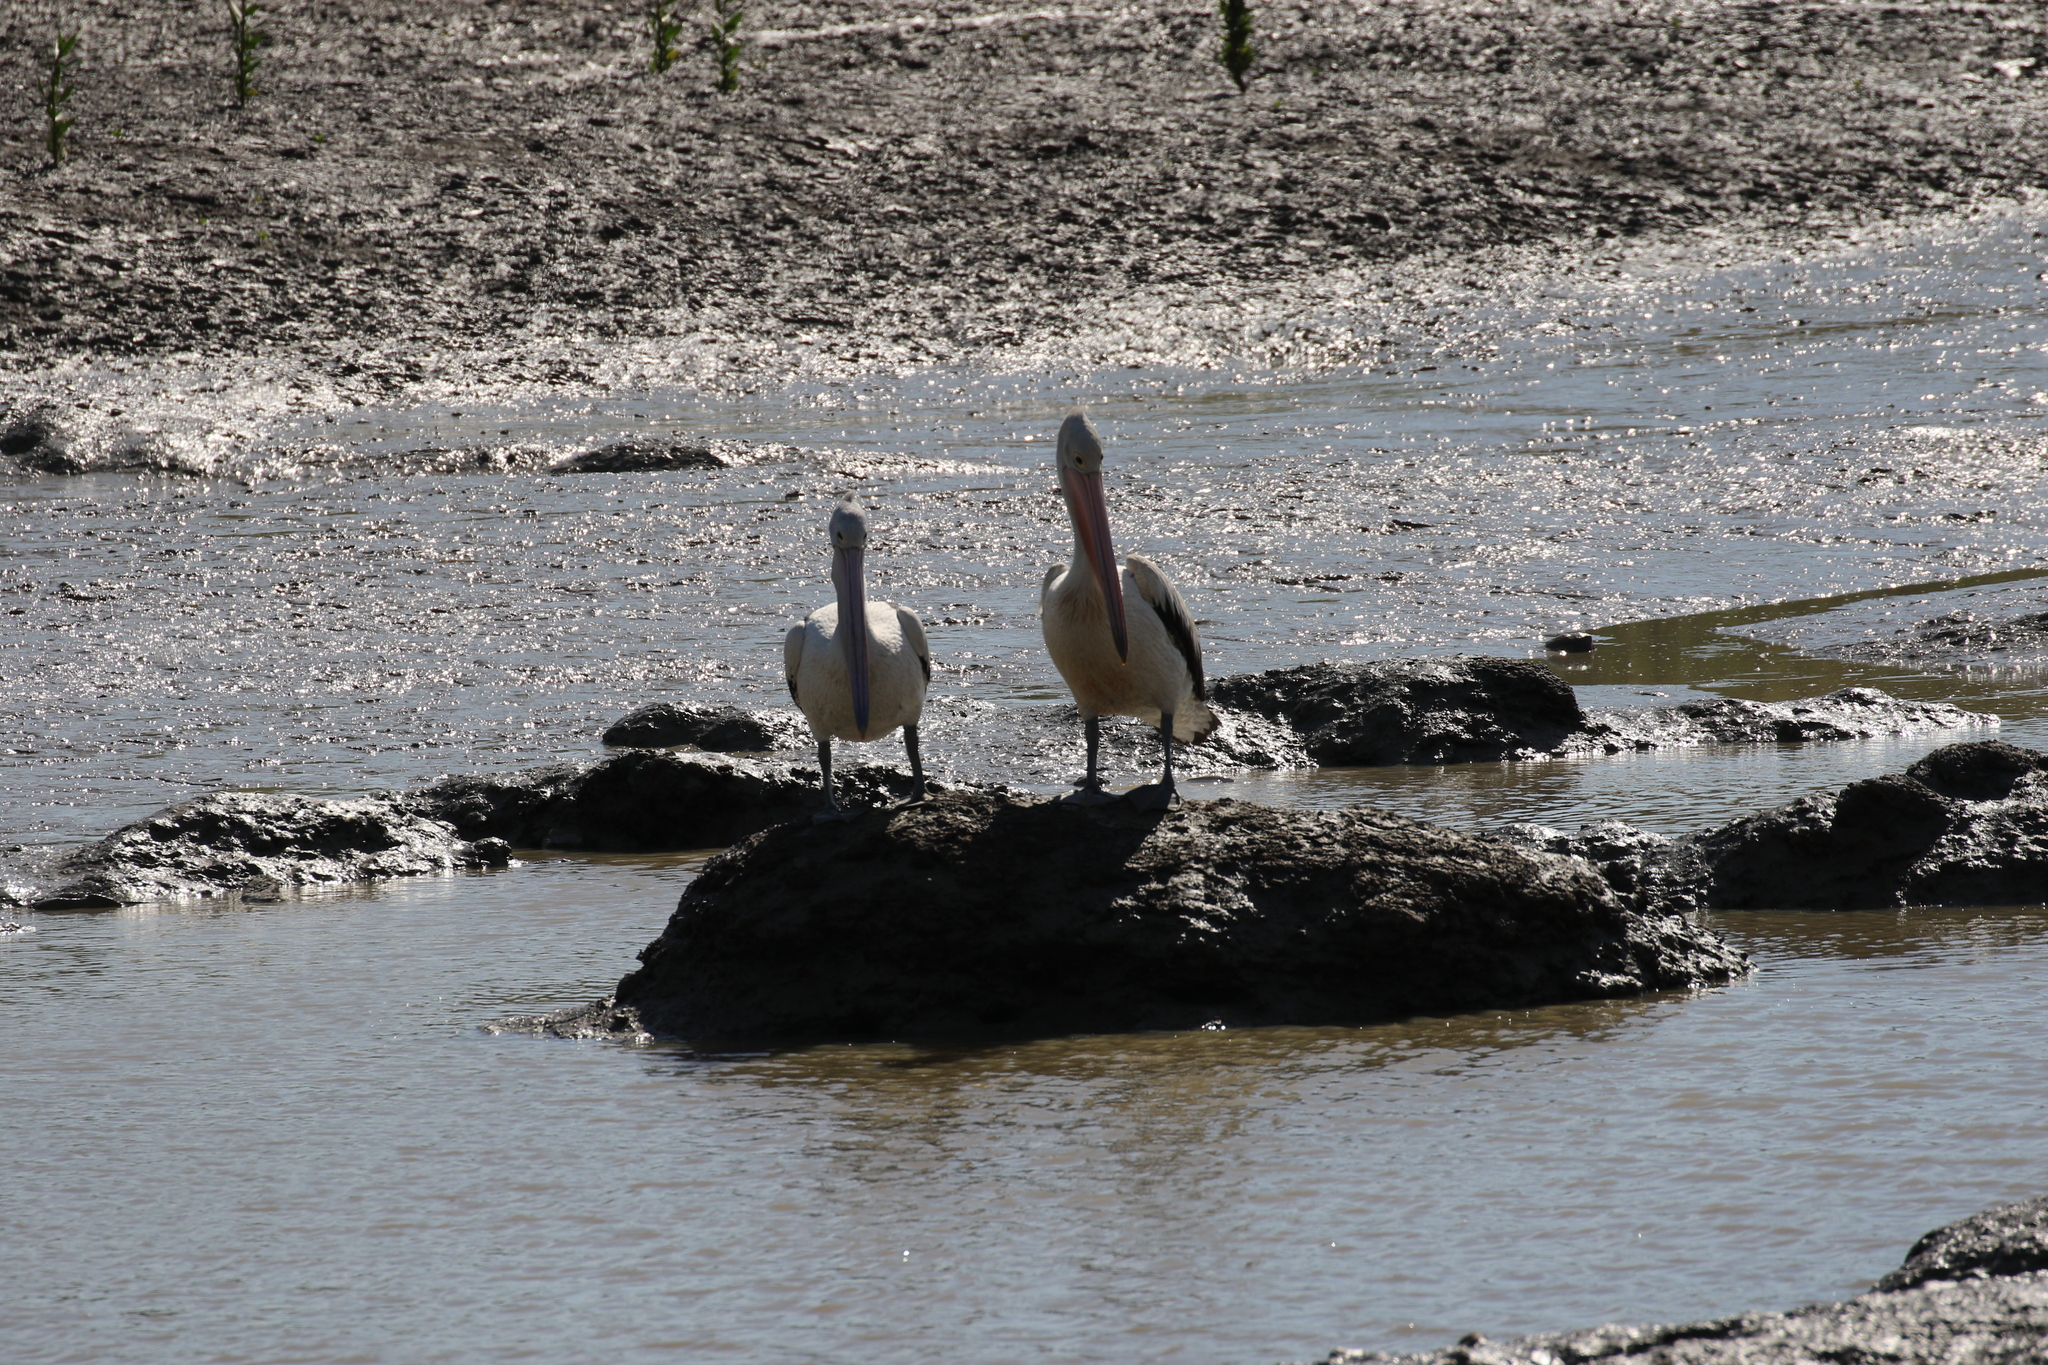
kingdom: Animalia
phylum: Chordata
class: Aves
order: Pelecaniformes
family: Pelecanidae
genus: Pelecanus
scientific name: Pelecanus conspicillatus
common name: Australian pelican
